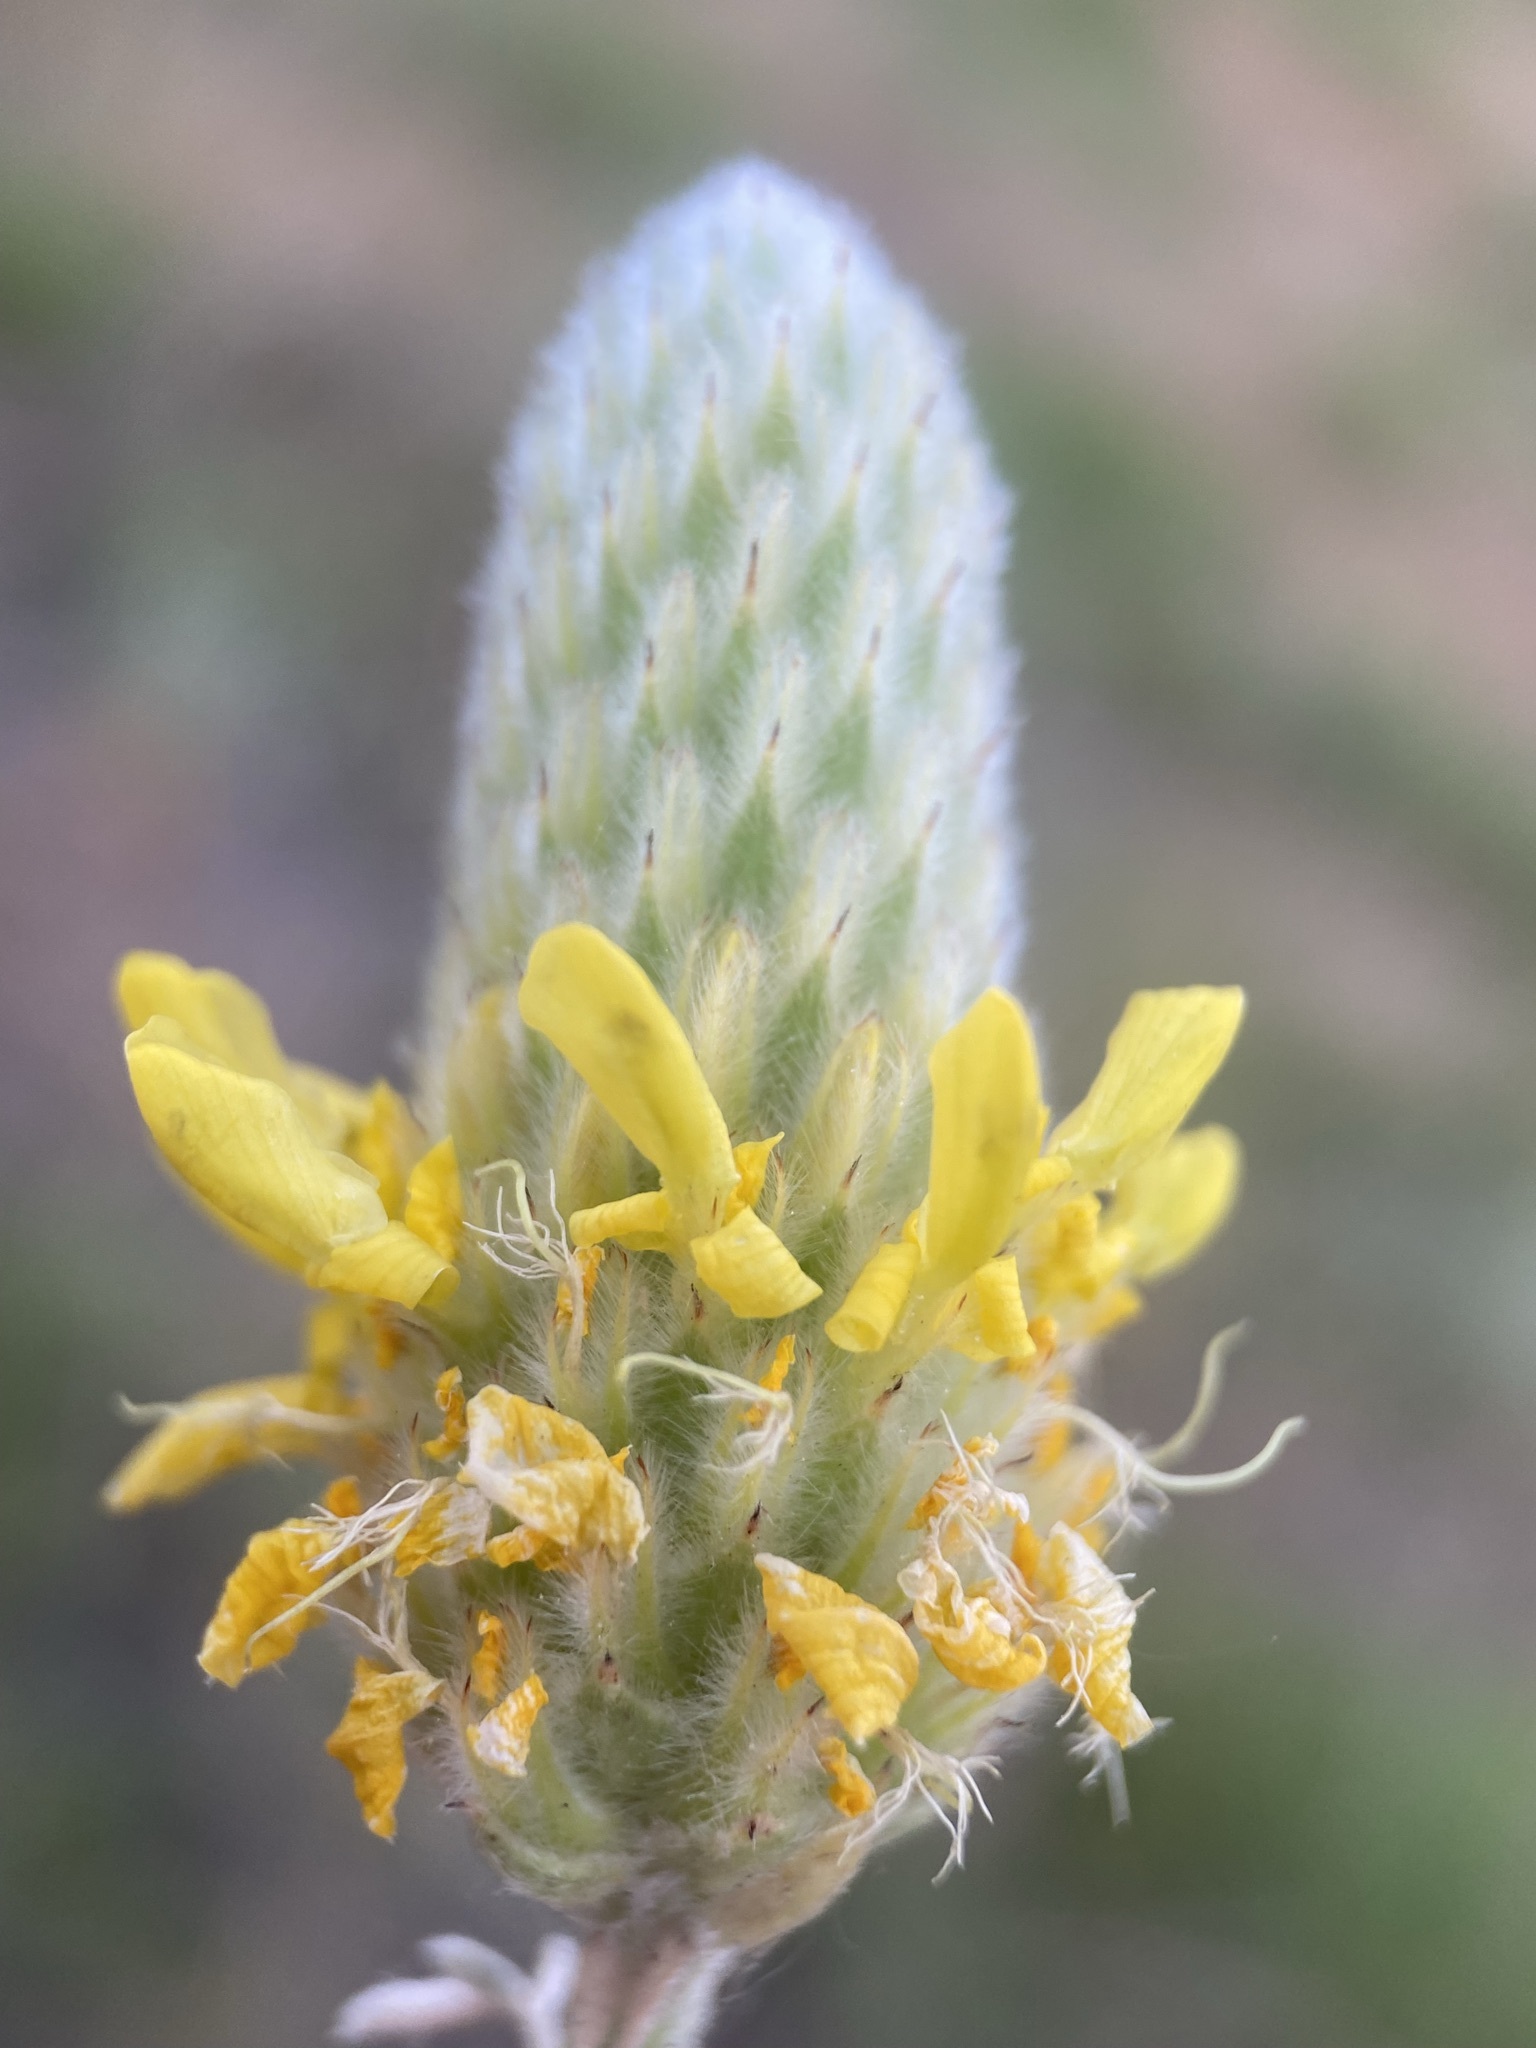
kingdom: Plantae
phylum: Tracheophyta
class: Magnoliopsida
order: Fabales
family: Fabaceae
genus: Dalea
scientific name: Dalea aurea
